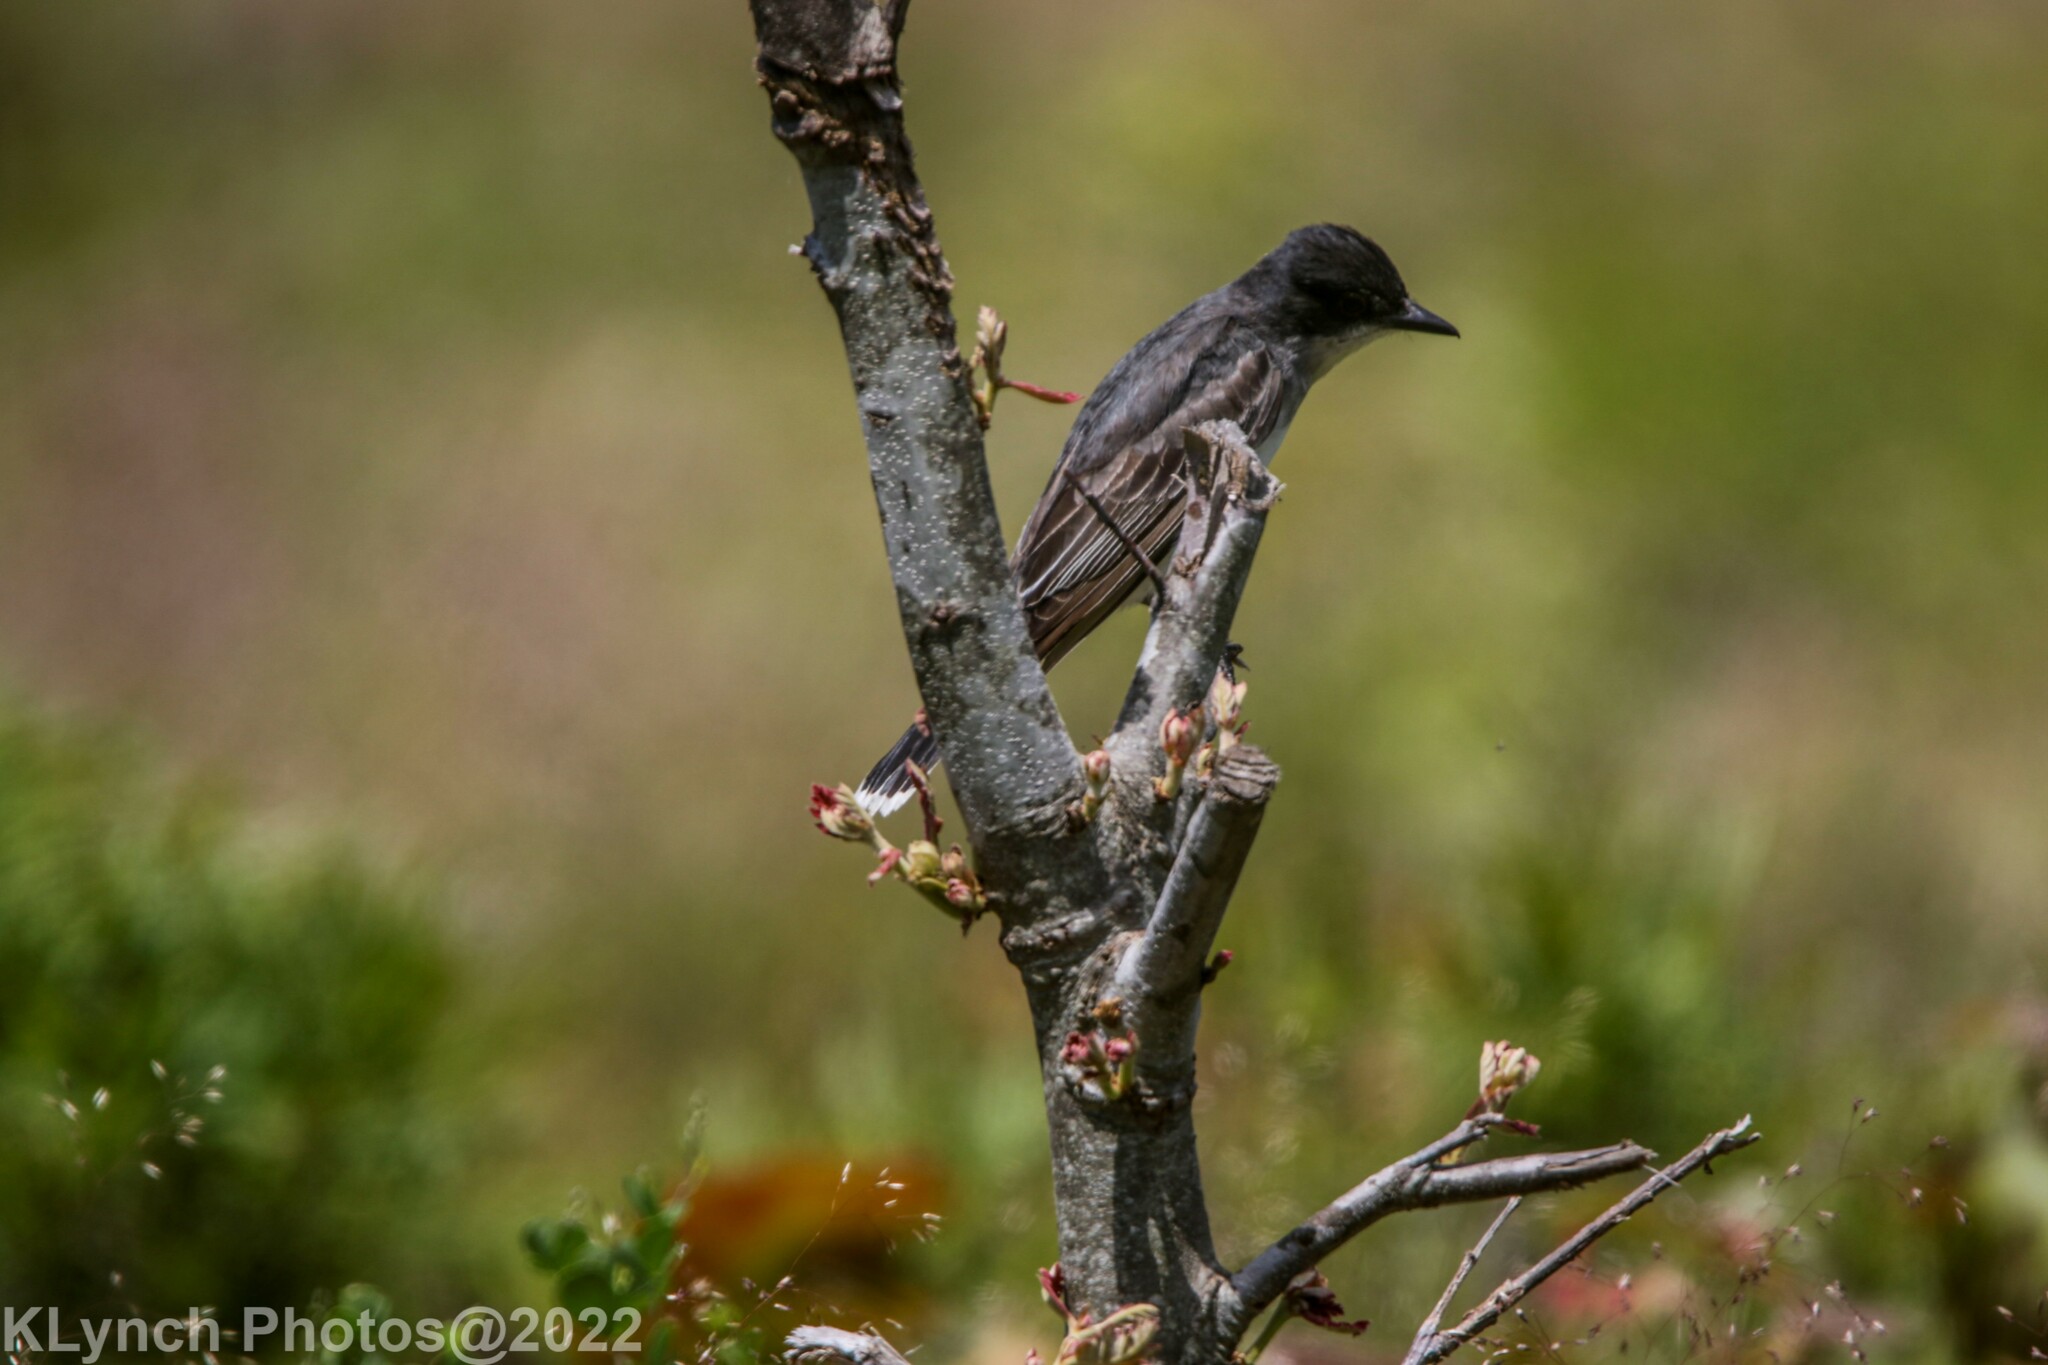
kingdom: Animalia
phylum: Chordata
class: Aves
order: Passeriformes
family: Tyrannidae
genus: Tyrannus
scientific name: Tyrannus tyrannus
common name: Eastern kingbird
